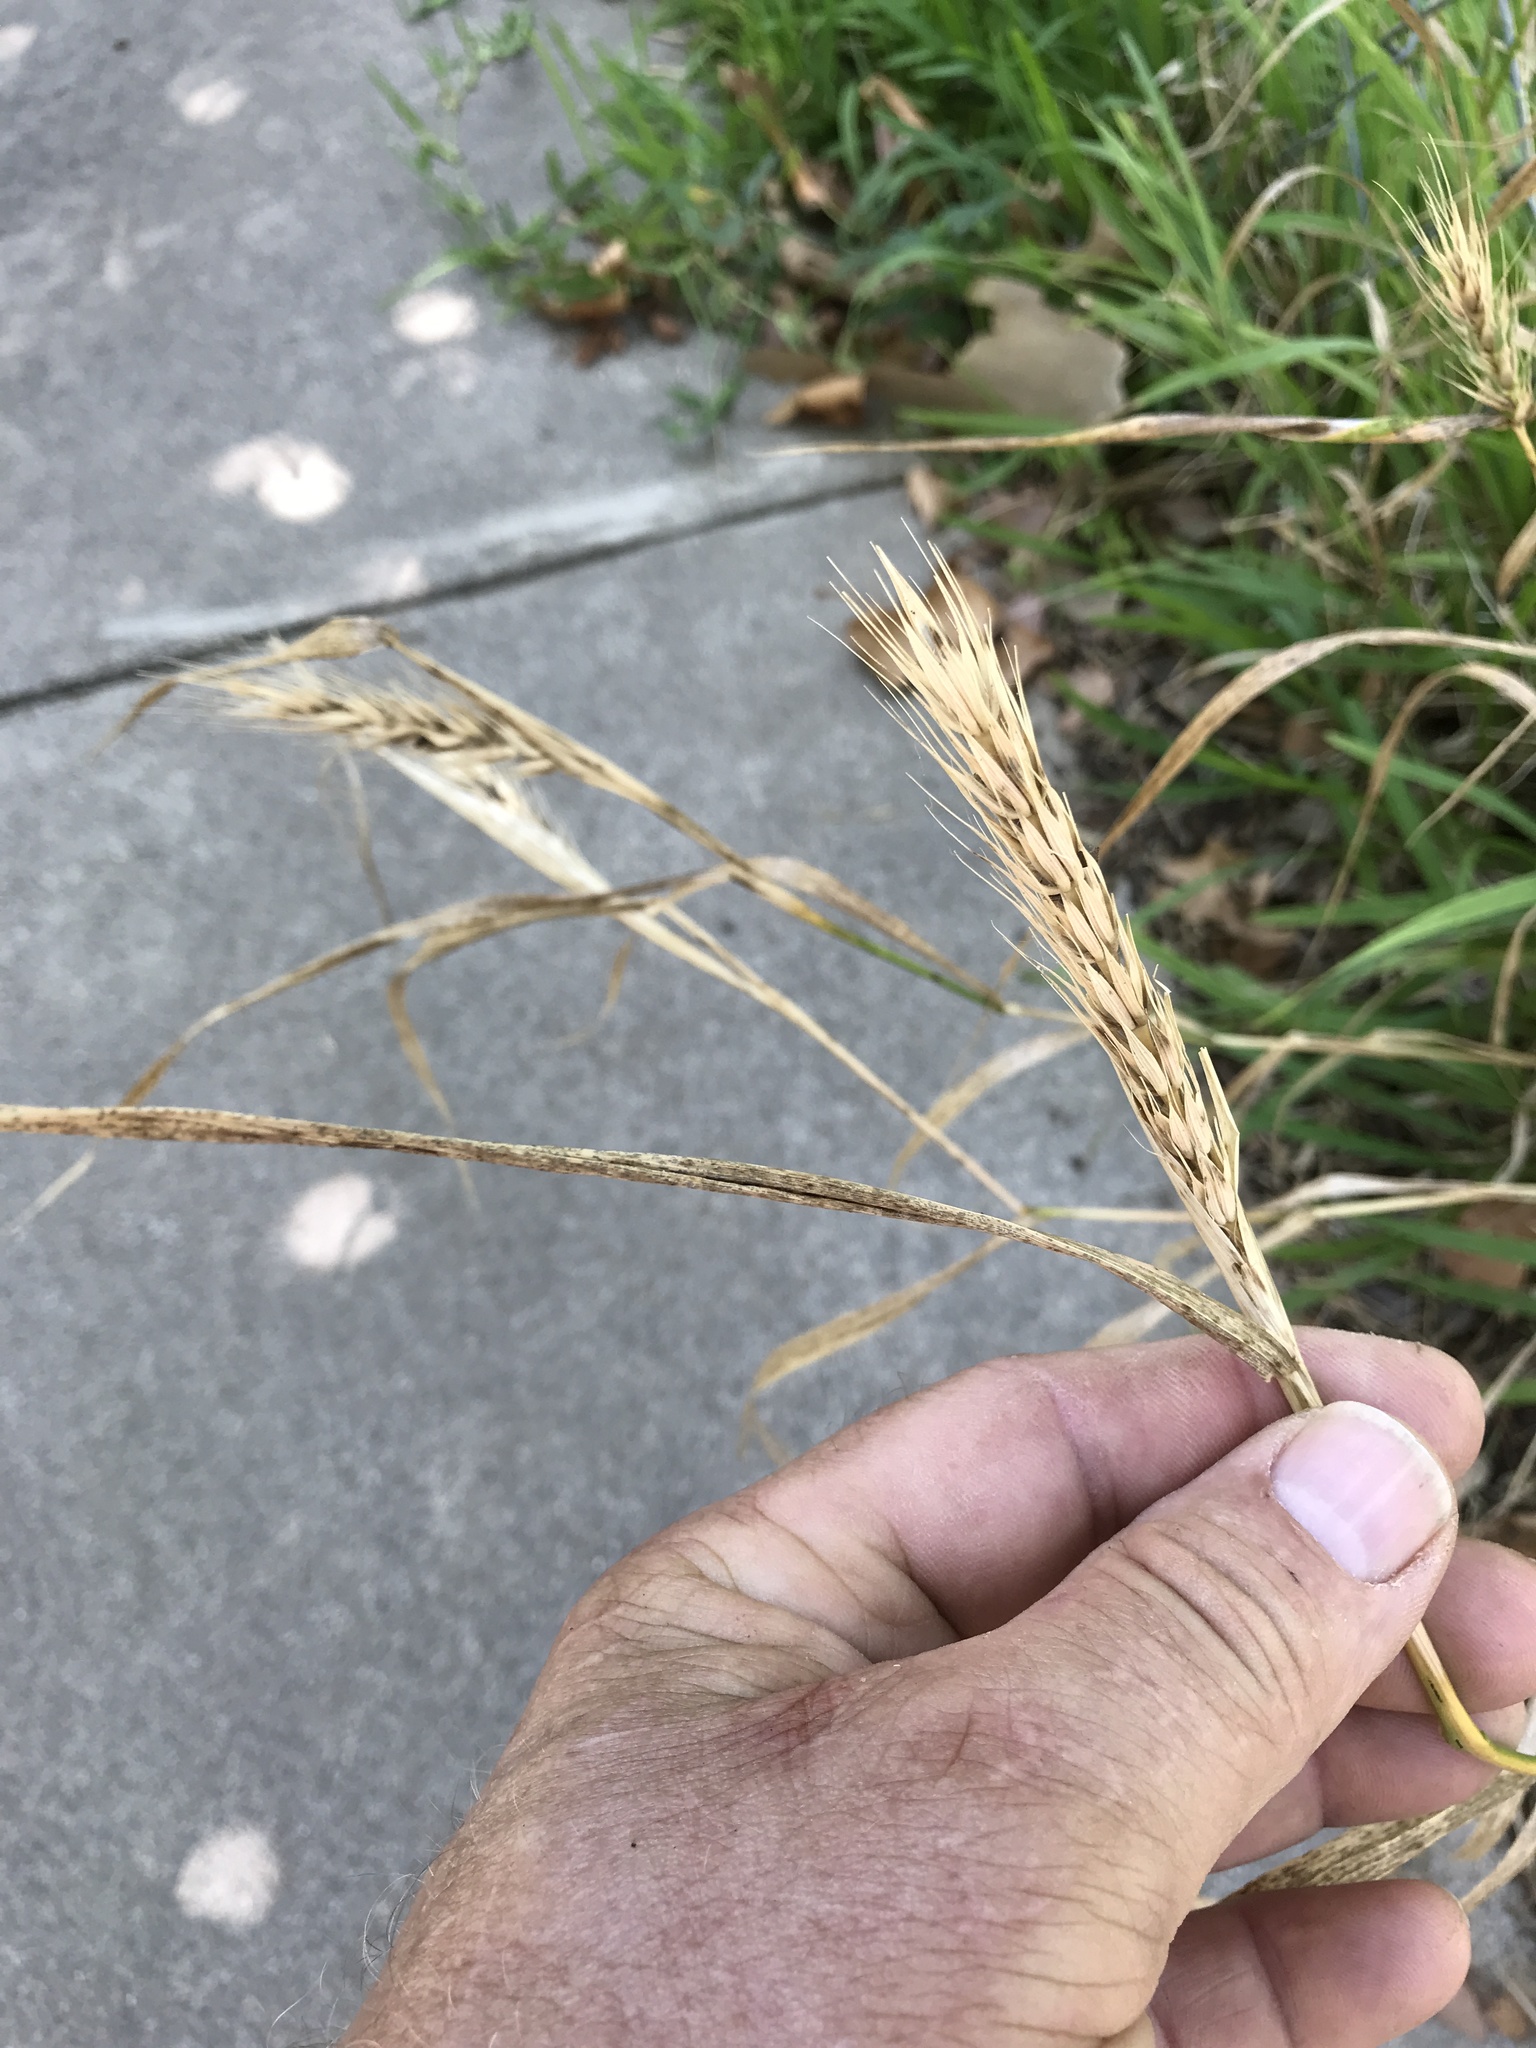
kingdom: Plantae
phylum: Tracheophyta
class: Liliopsida
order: Poales
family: Poaceae
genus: Elymus
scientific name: Elymus virginicus
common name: Common eastern wildrye
